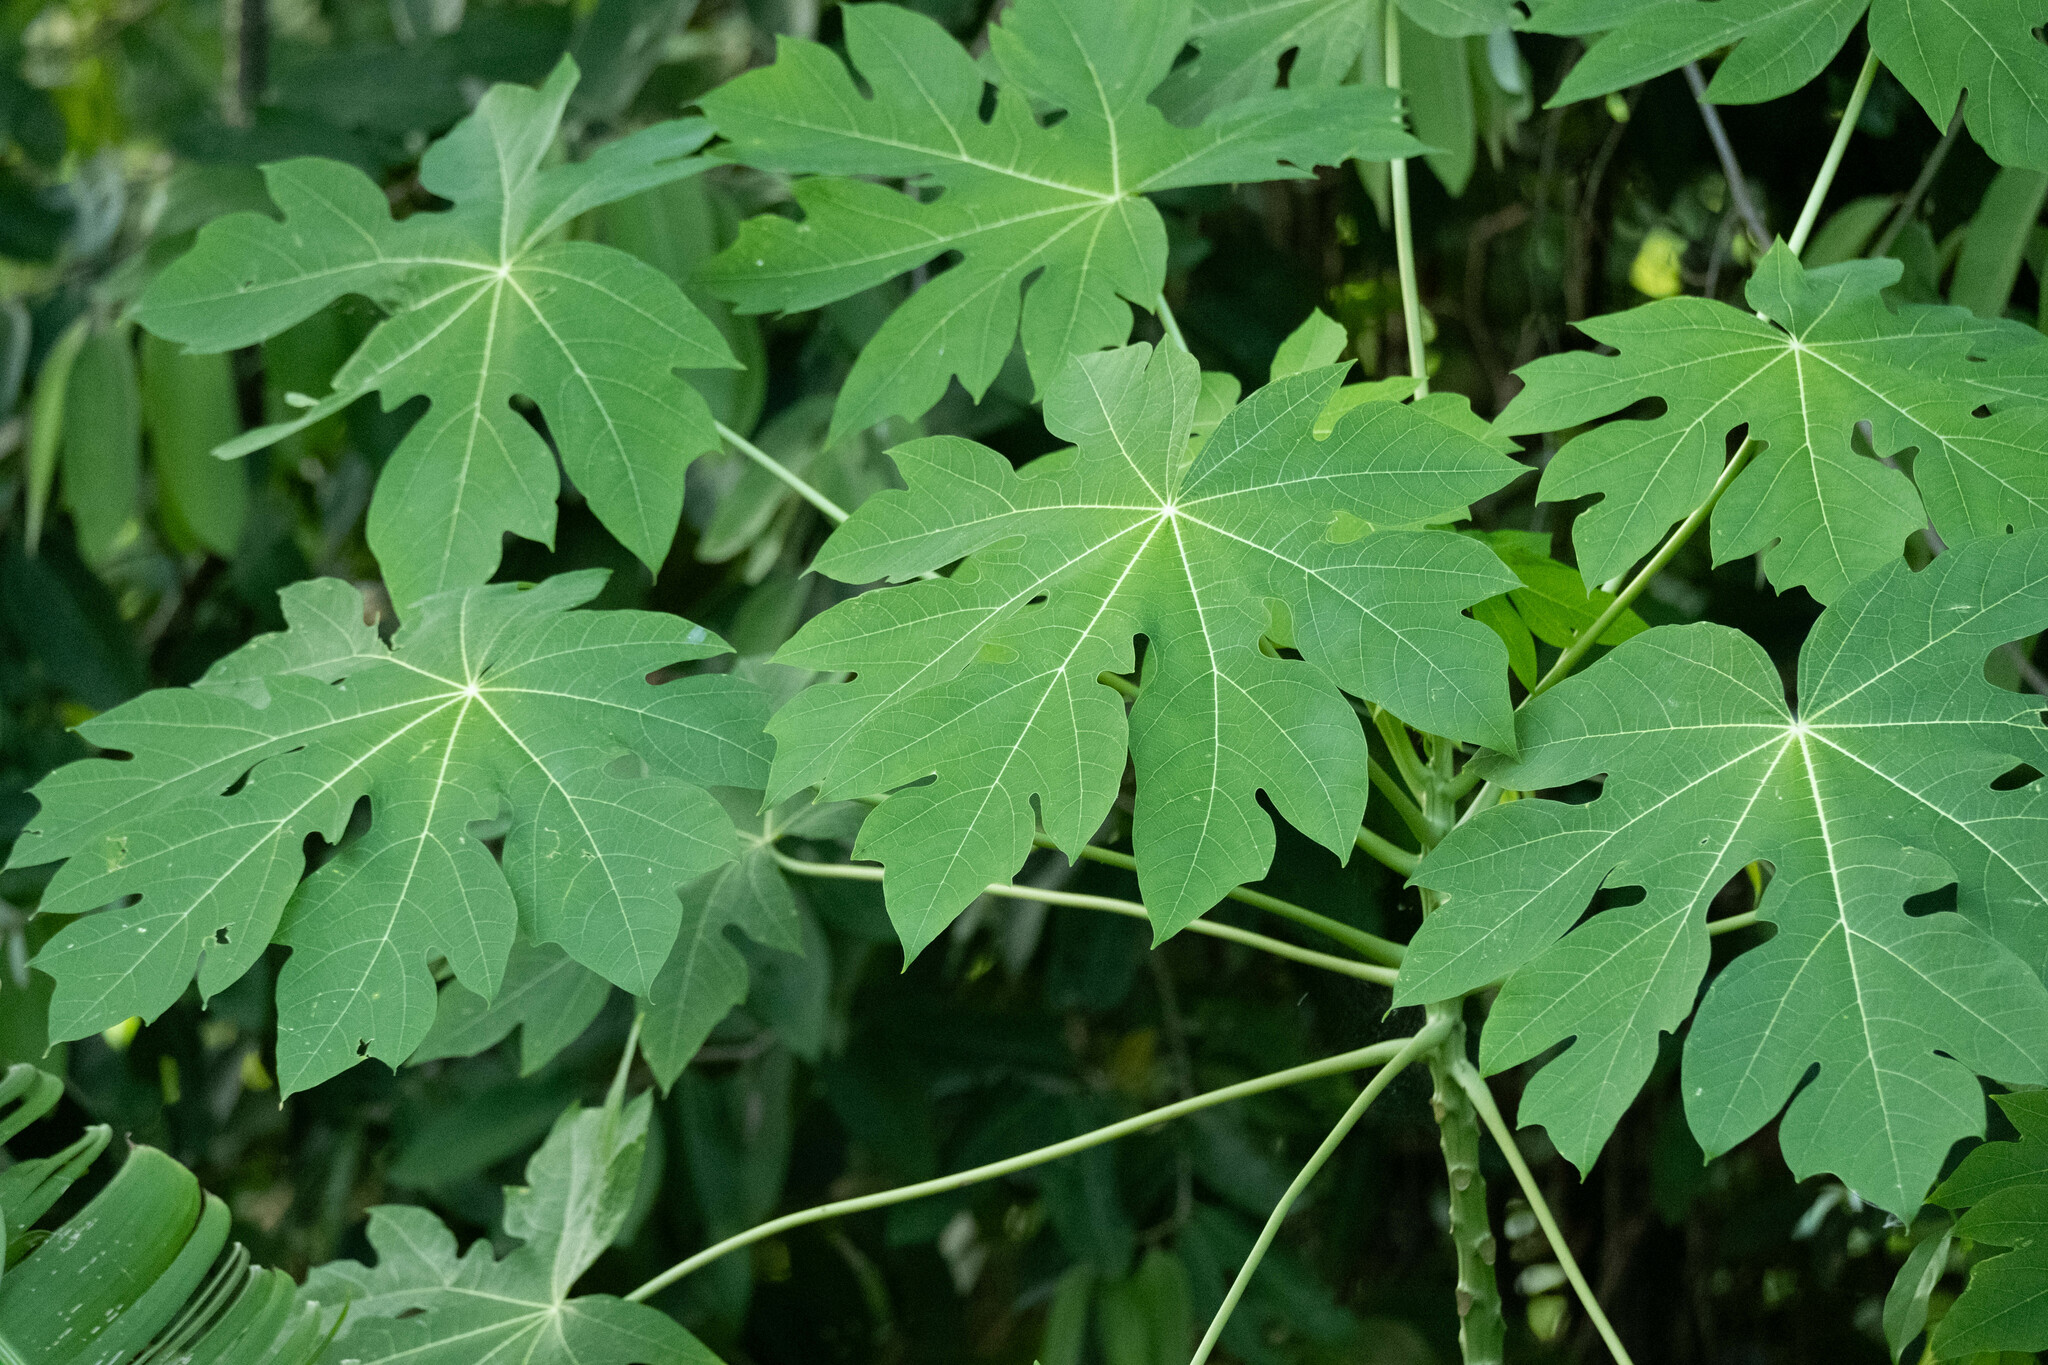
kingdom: Plantae
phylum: Tracheophyta
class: Magnoliopsida
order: Brassicales
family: Caricaceae
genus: Carica
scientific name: Carica papaya
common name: Papaya
